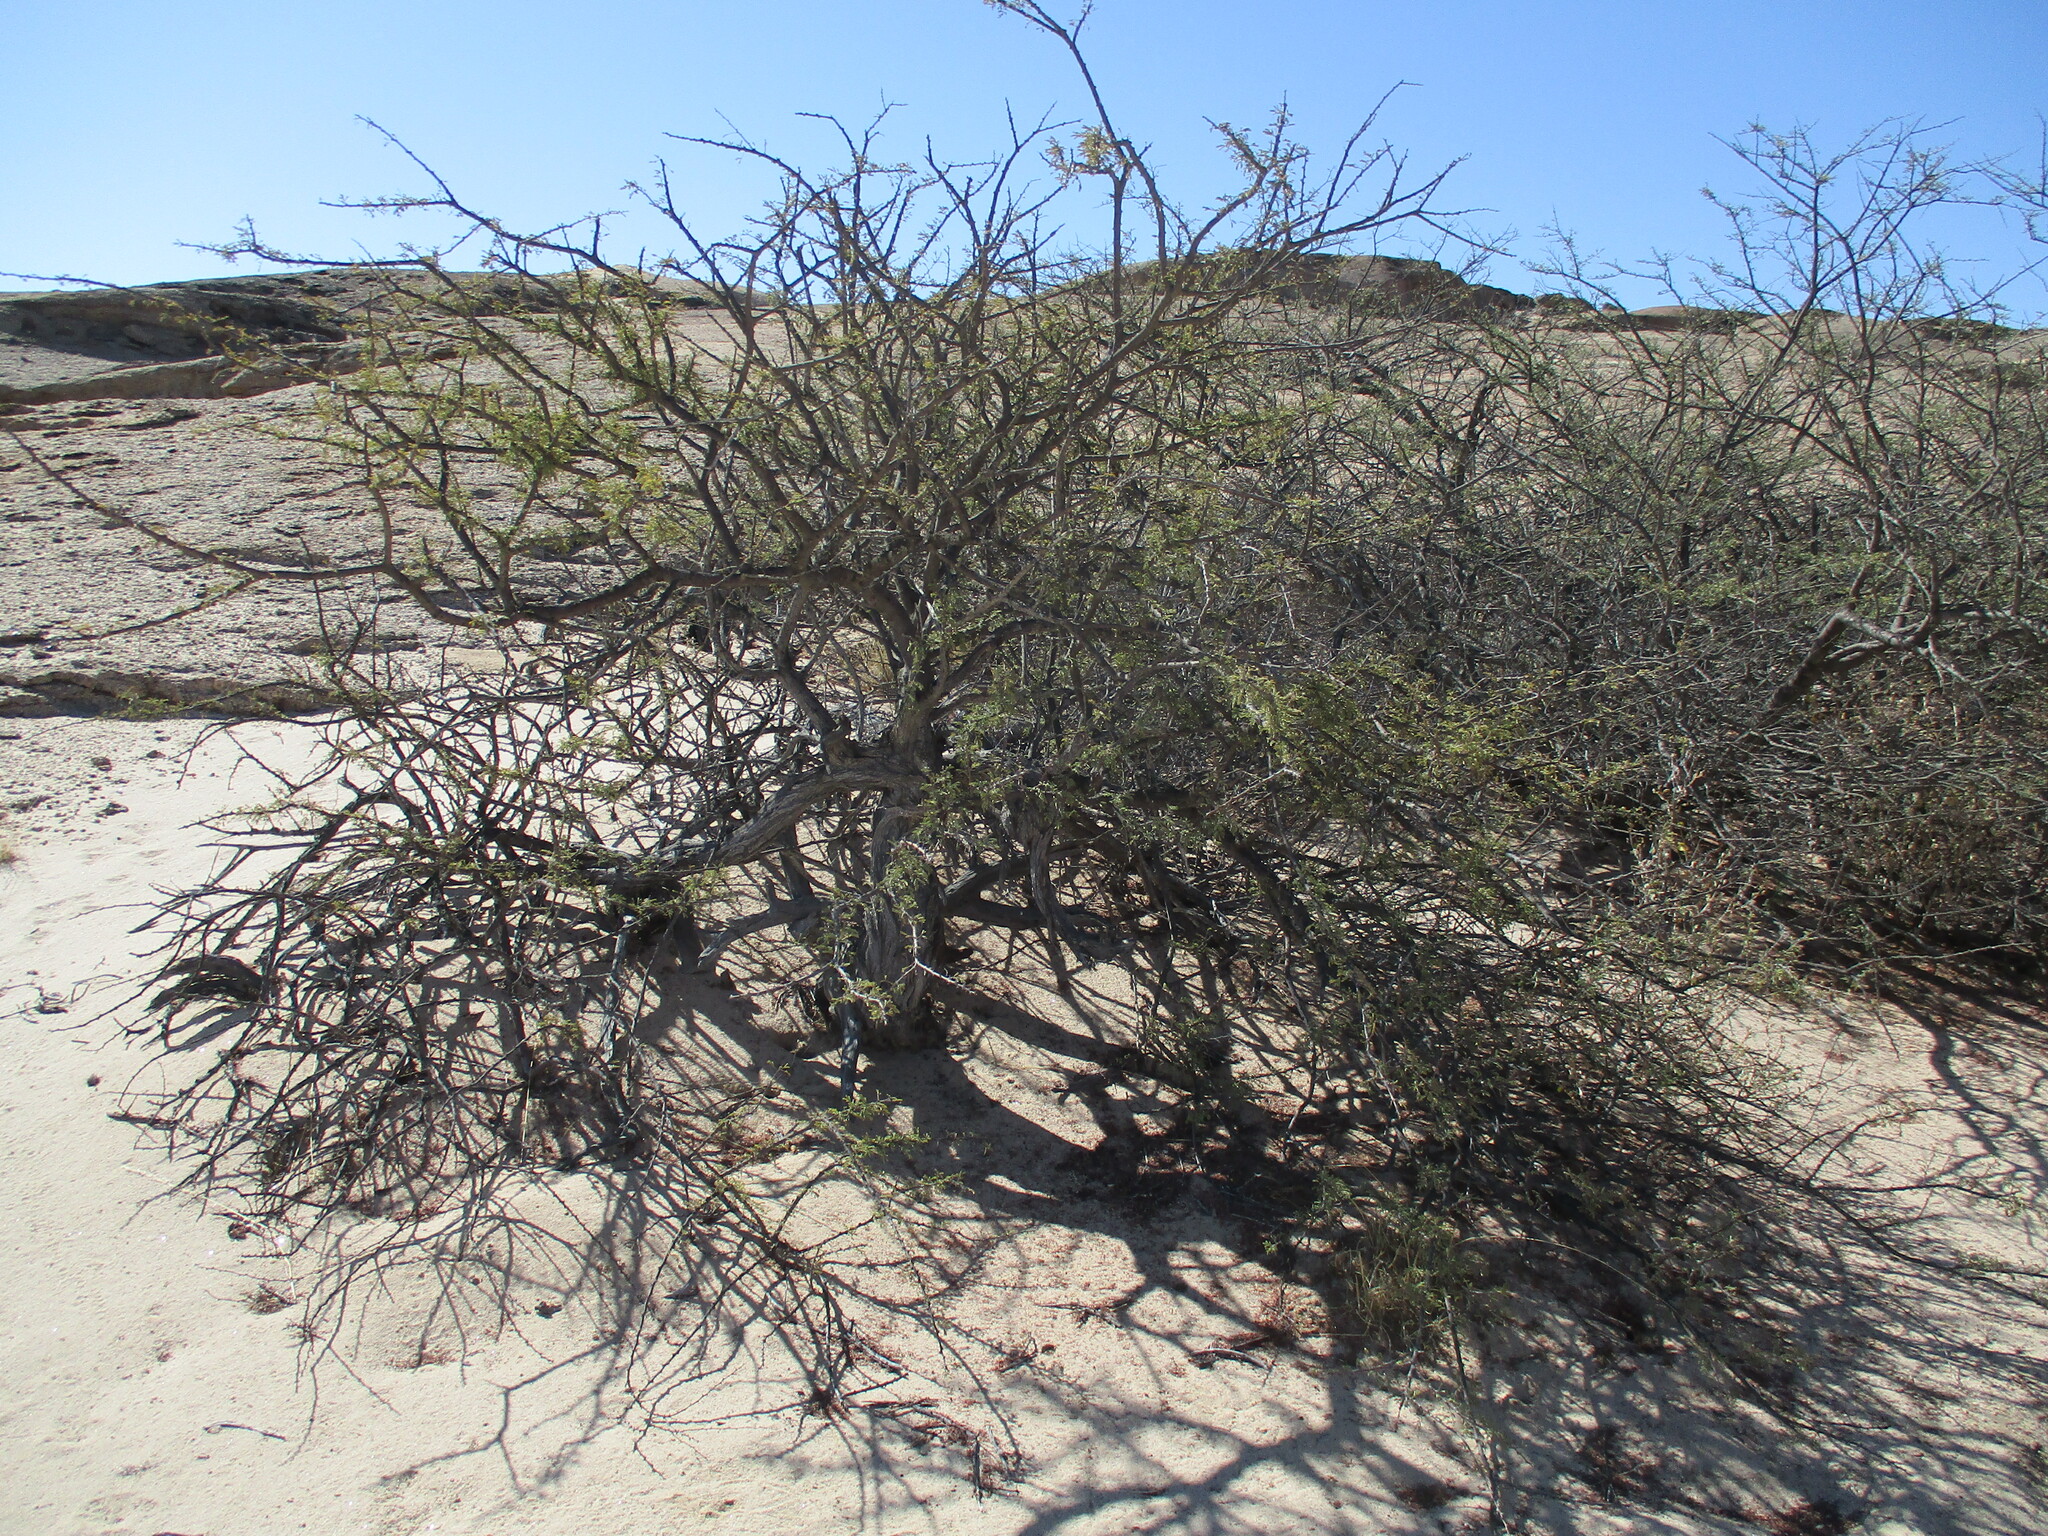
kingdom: Plantae
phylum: Tracheophyta
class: Magnoliopsida
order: Fabales
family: Fabaceae
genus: Vachellia
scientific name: Vachellia reficiens
